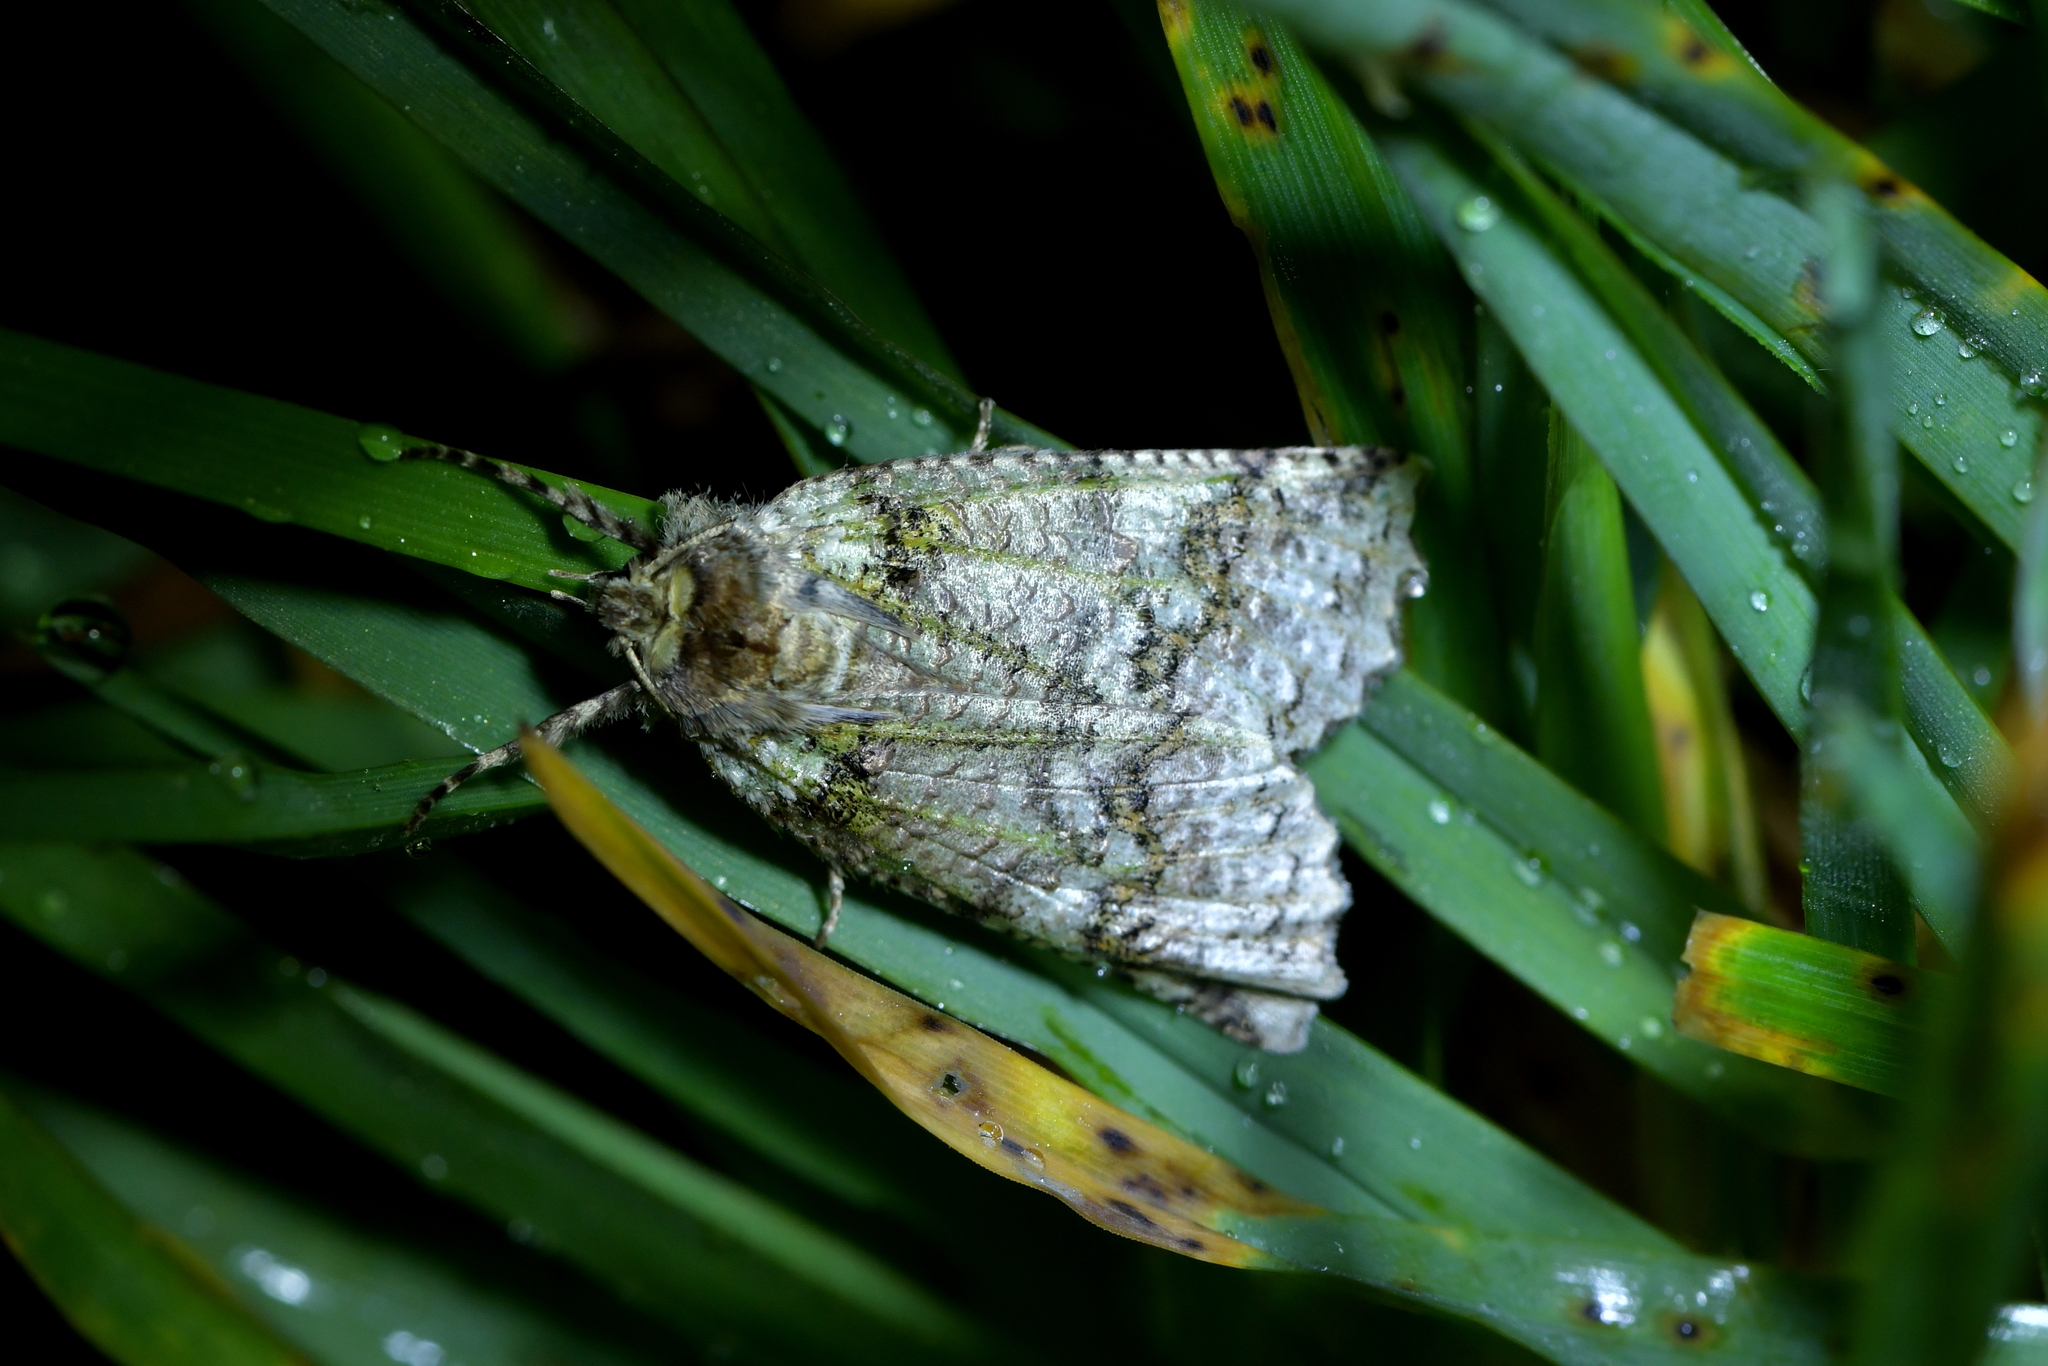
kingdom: Animalia
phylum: Arthropoda
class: Insecta
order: Lepidoptera
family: Geometridae
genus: Declana
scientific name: Declana floccosa
